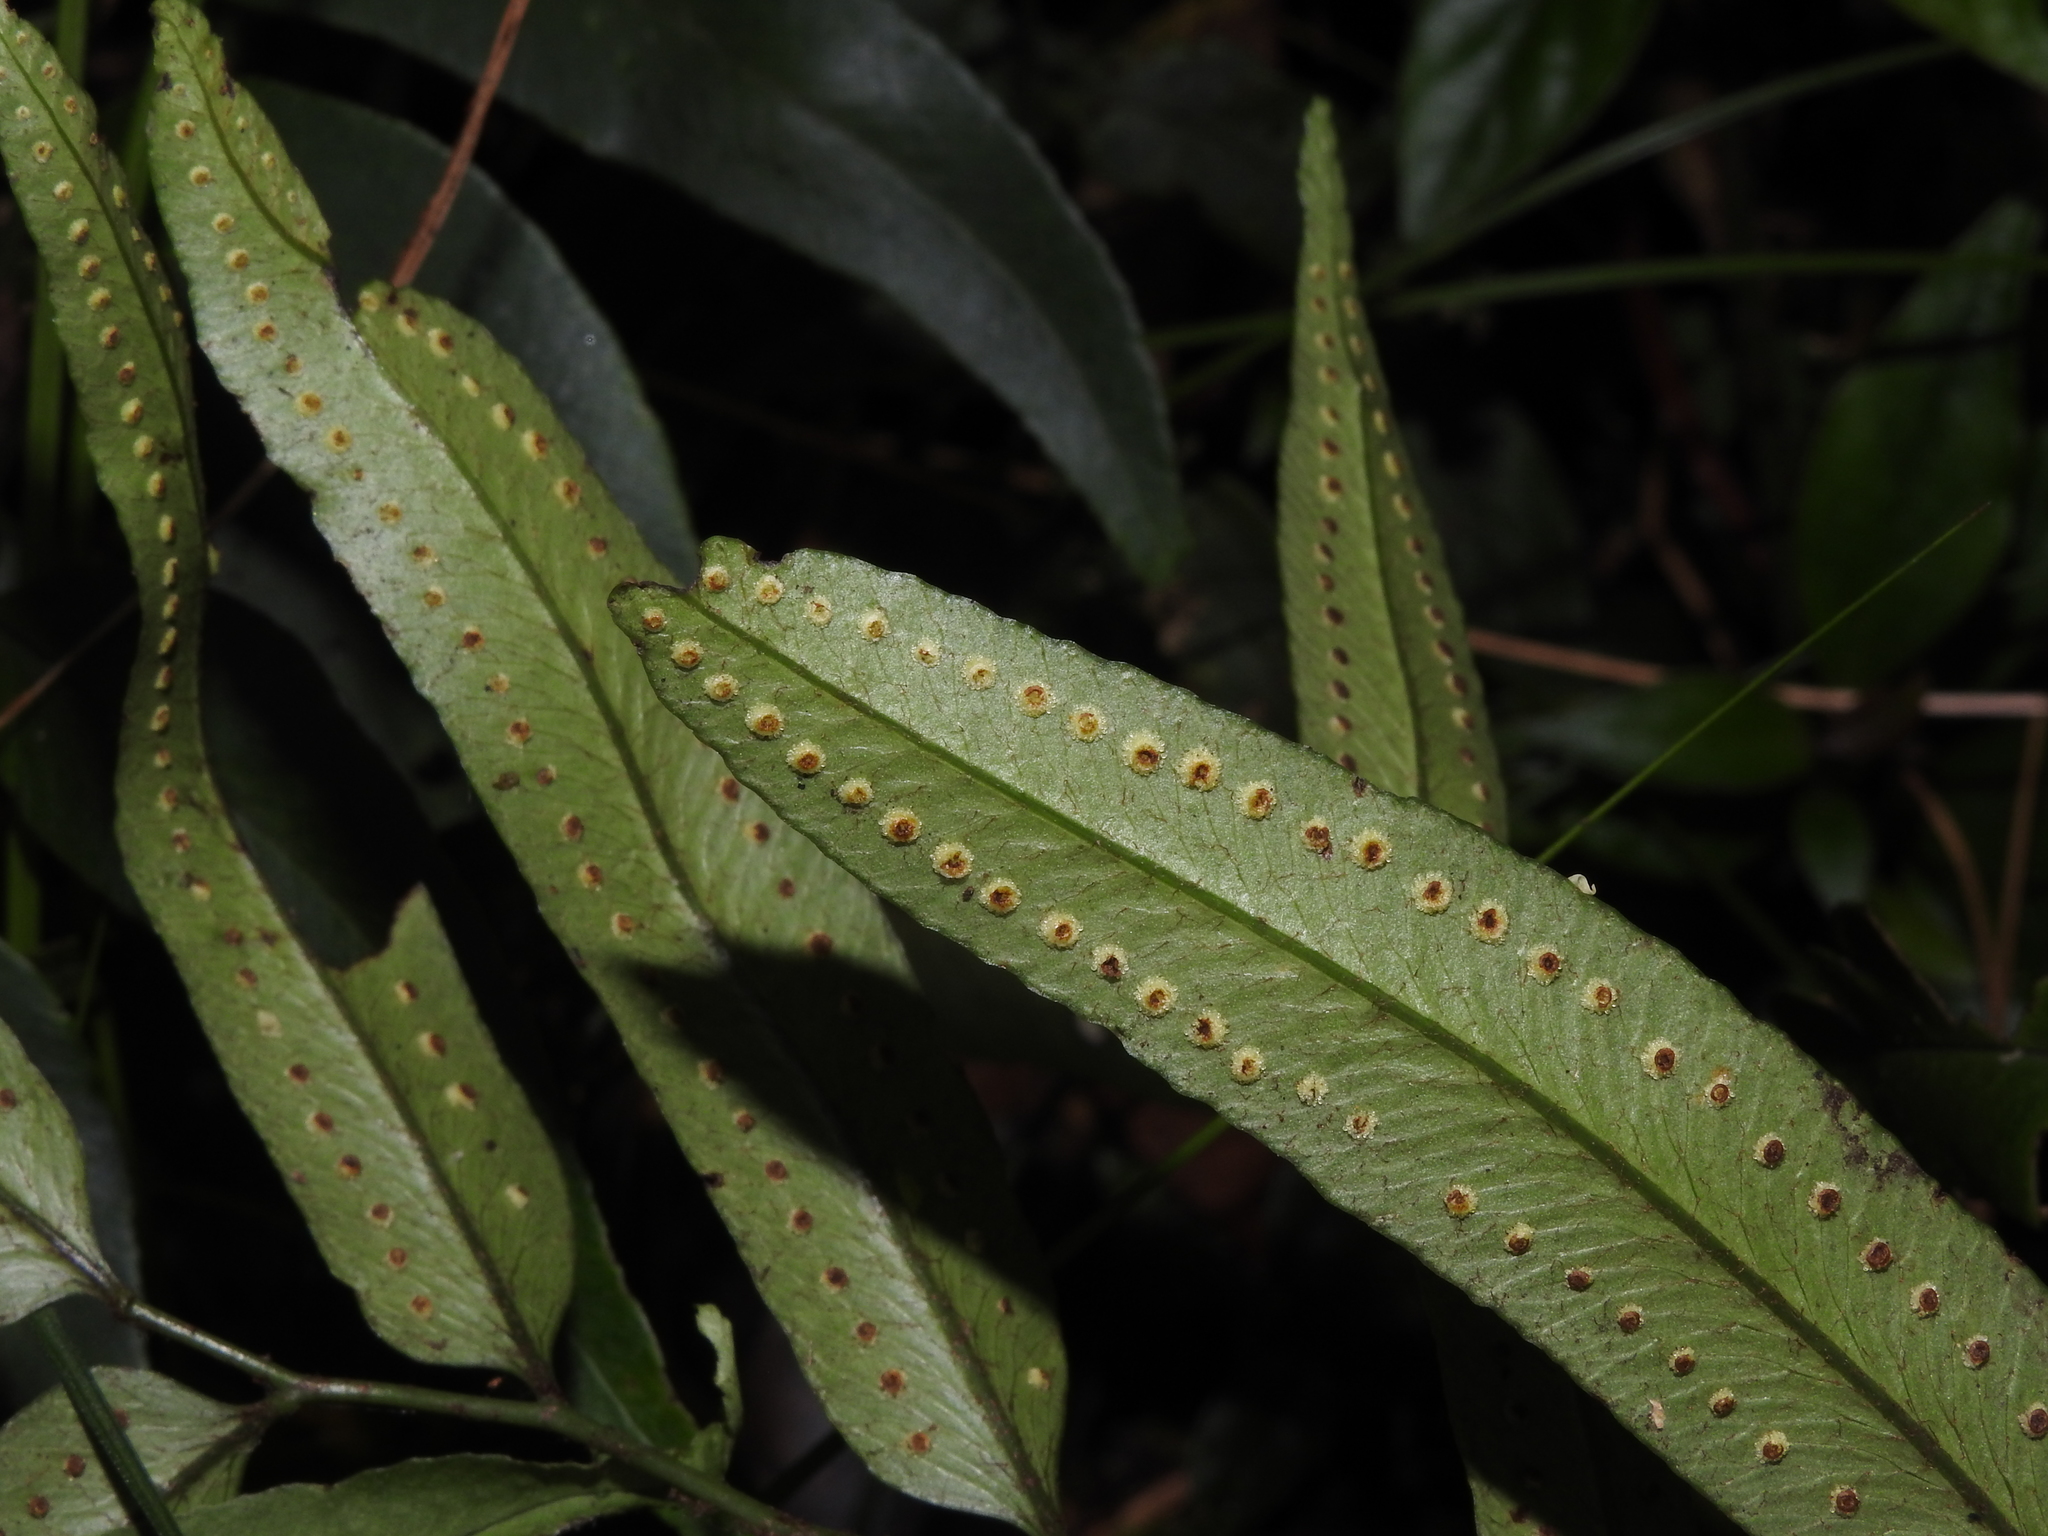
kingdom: Plantae
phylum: Tracheophyta
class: Polypodiopsida
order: Polypodiales
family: Dryopteridaceae
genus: Polystichum
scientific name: Polystichum fraxinellum
